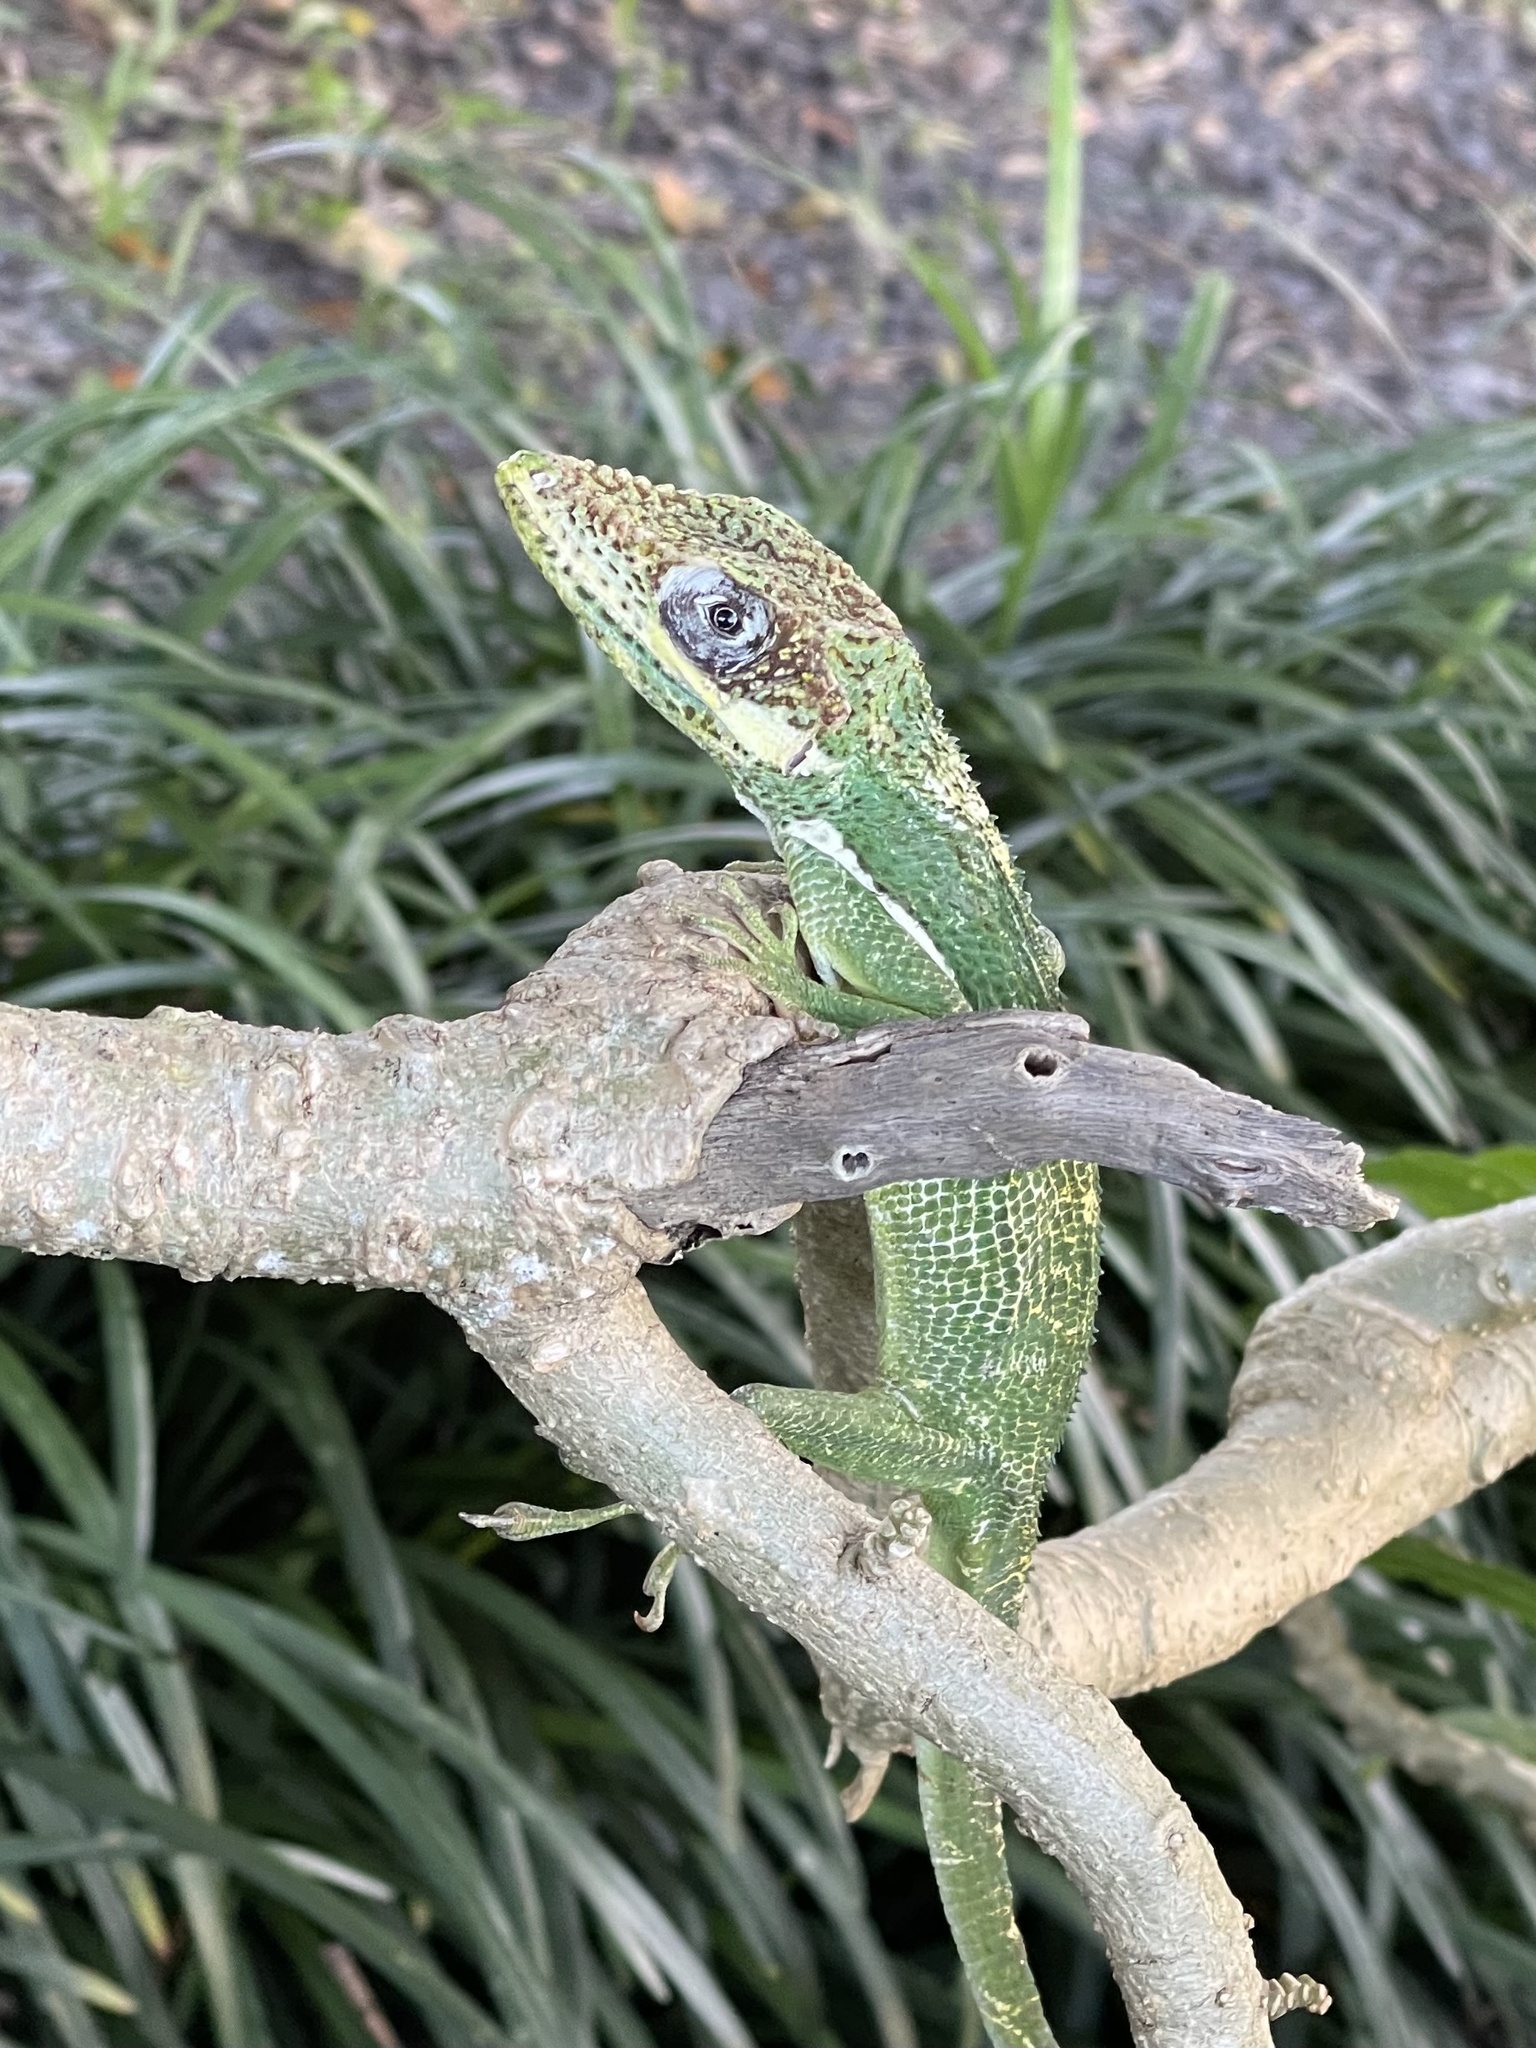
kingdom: Animalia
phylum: Chordata
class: Squamata
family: Dactyloidae
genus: Anolis
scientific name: Anolis equestris
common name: Knight anole
